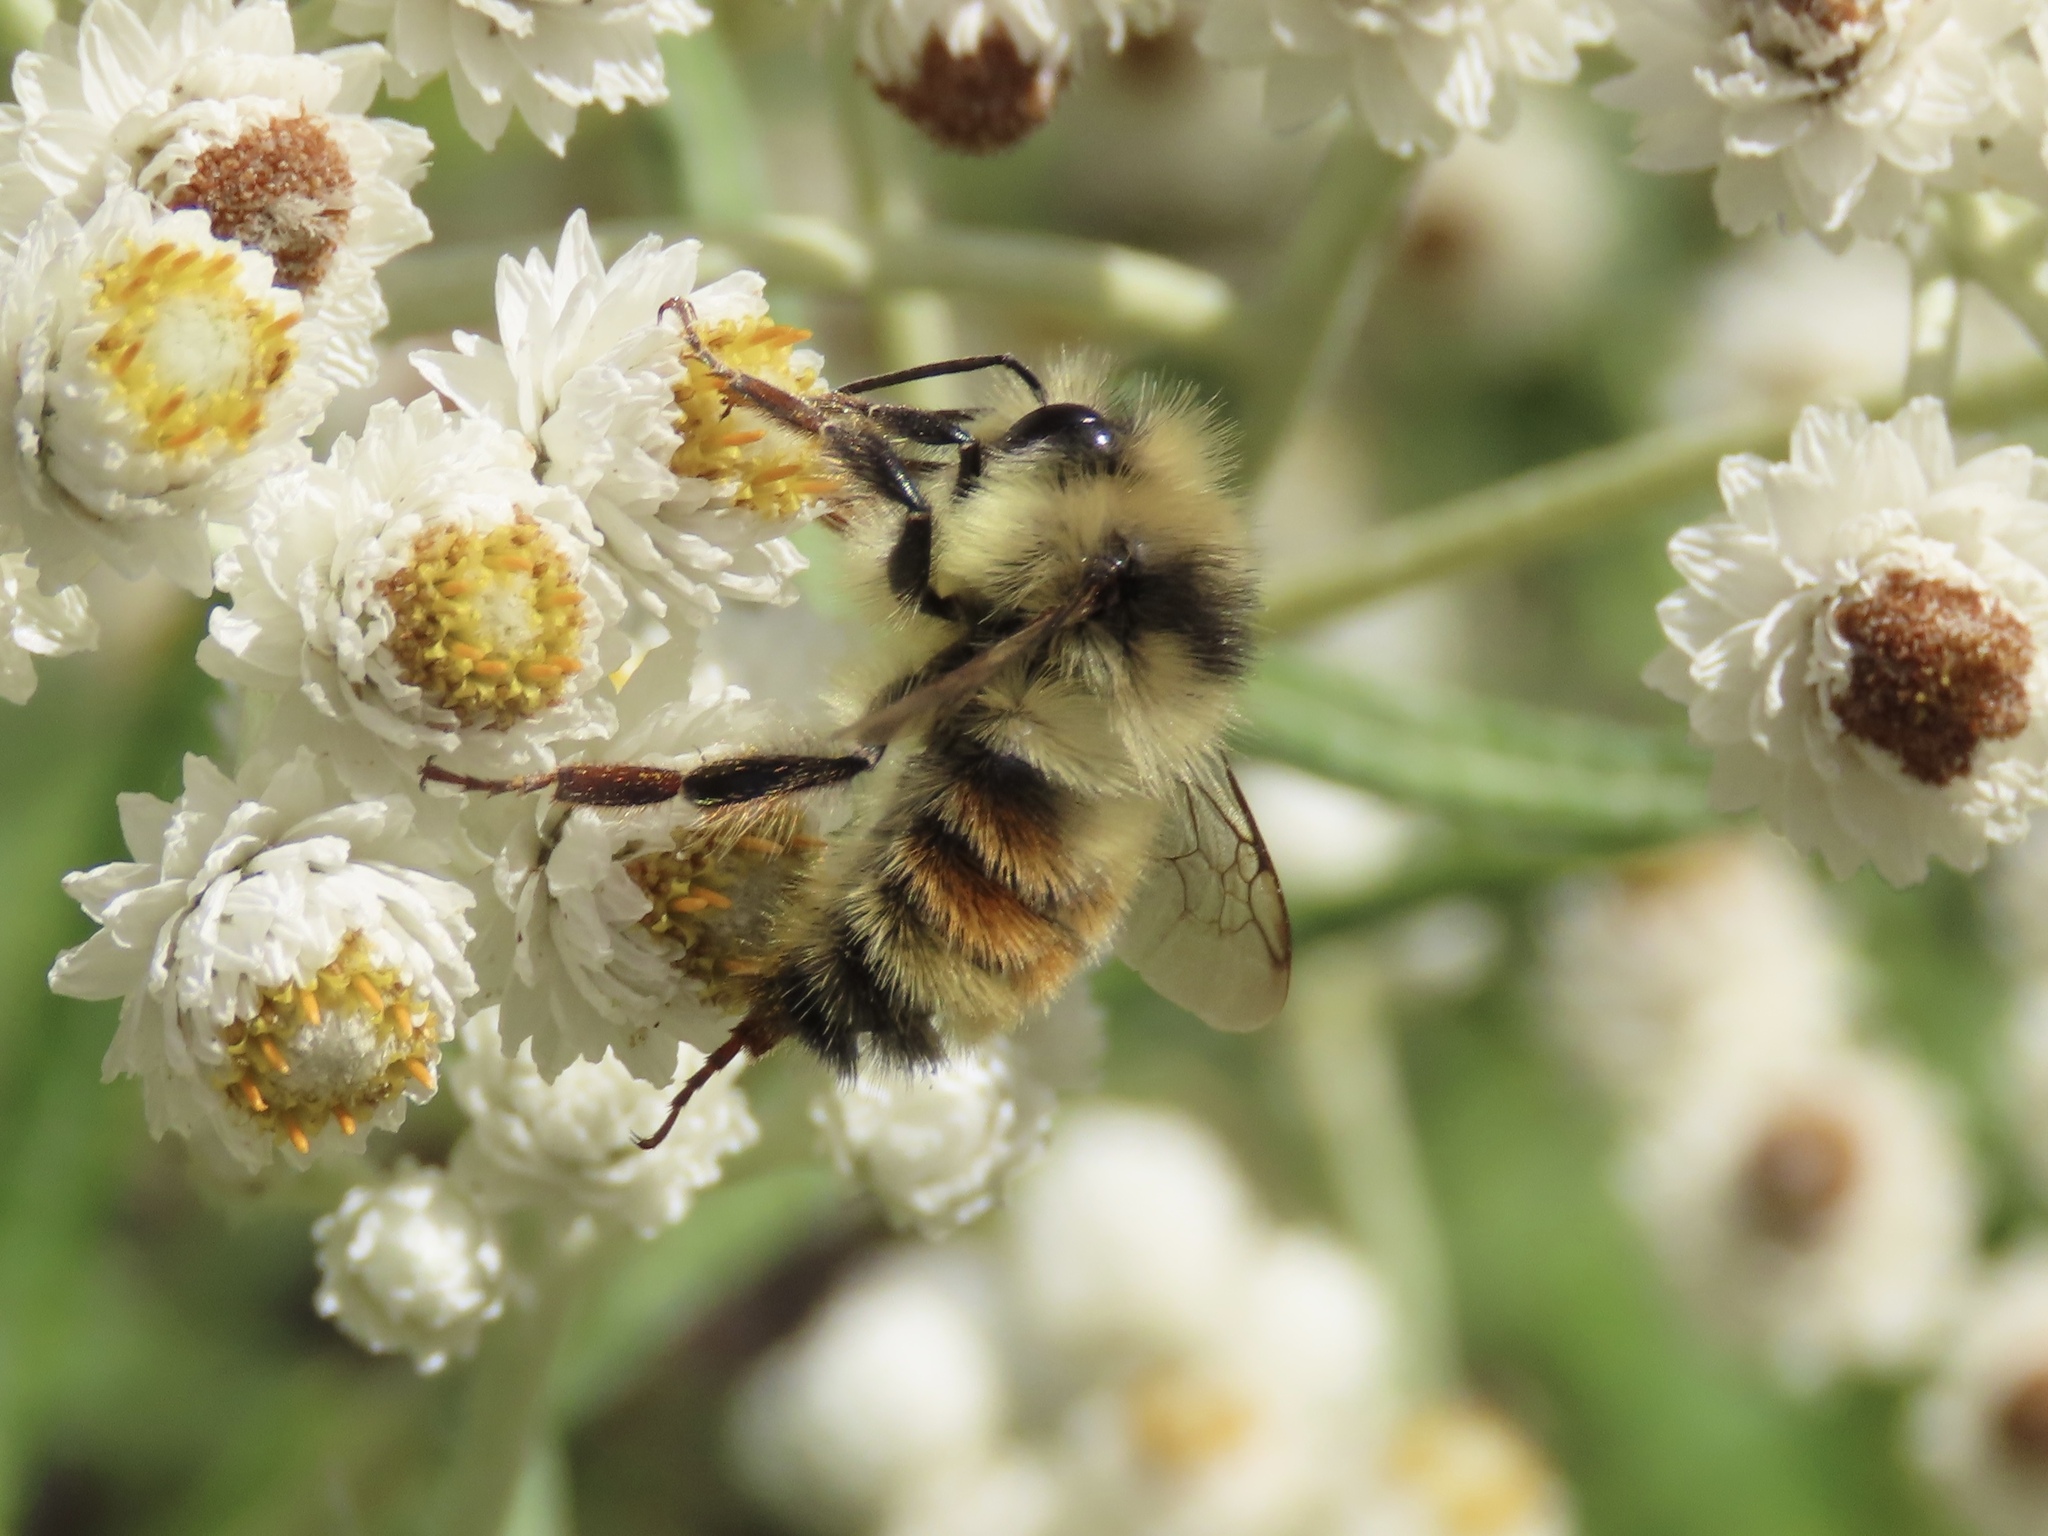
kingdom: Animalia
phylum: Arthropoda
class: Insecta
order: Hymenoptera
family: Apidae
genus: Bombus
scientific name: Bombus vancouverensis
